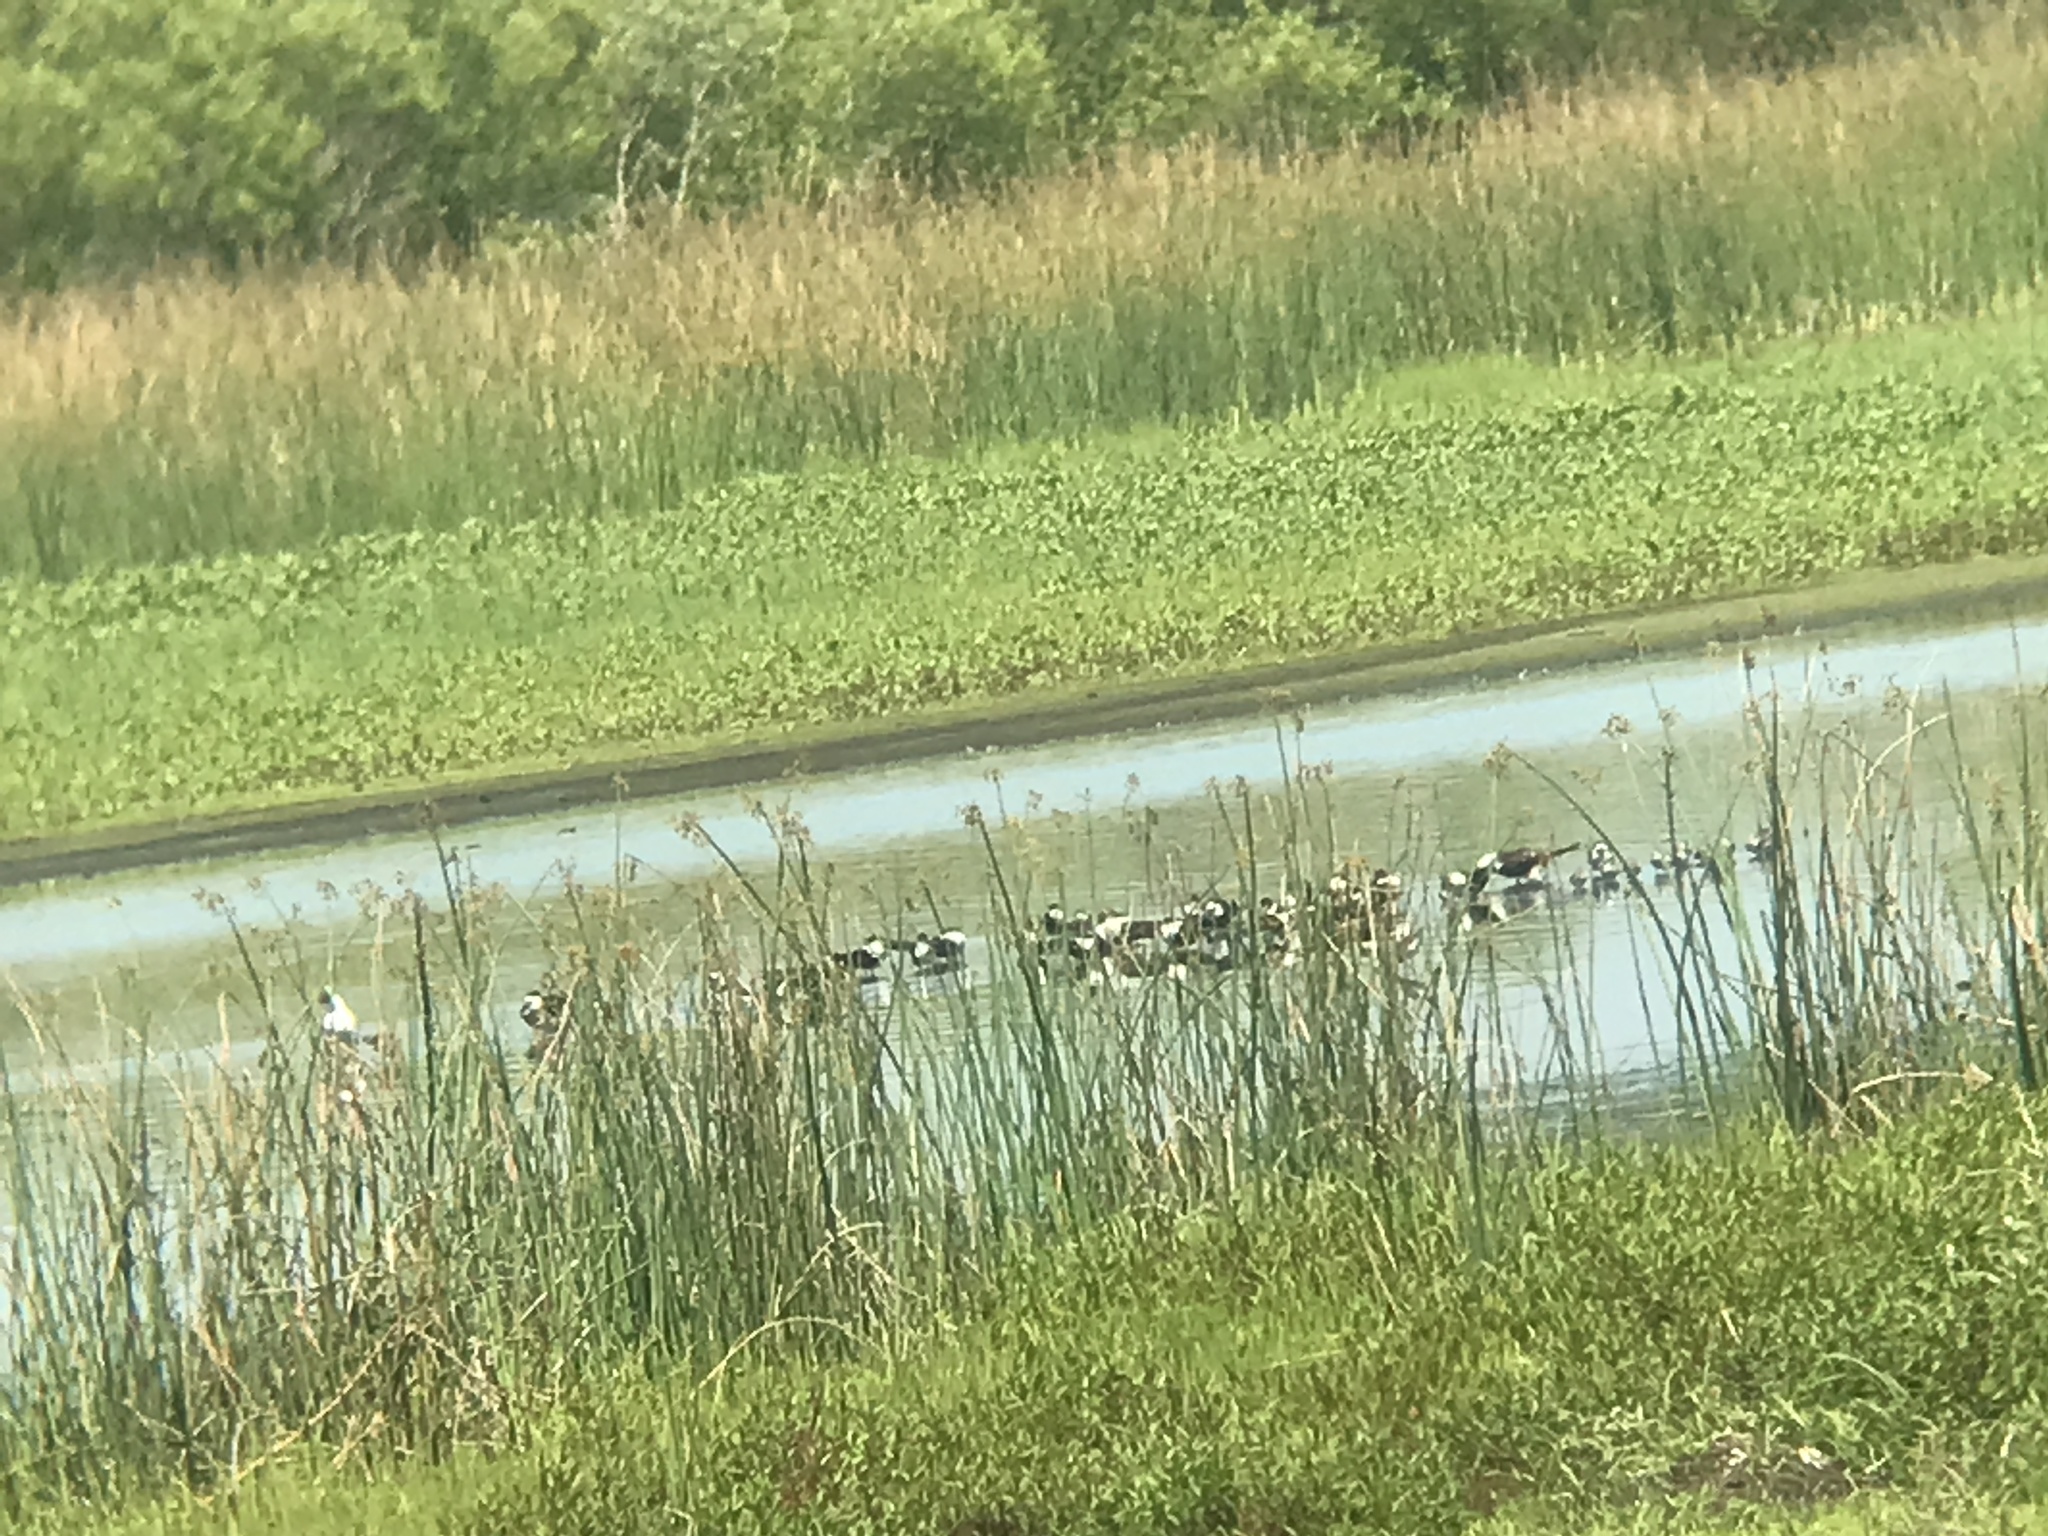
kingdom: Animalia
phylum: Chordata
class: Aves
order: Charadriiformes
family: Laridae
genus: Rynchops
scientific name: Rynchops niger
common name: Black skimmer
